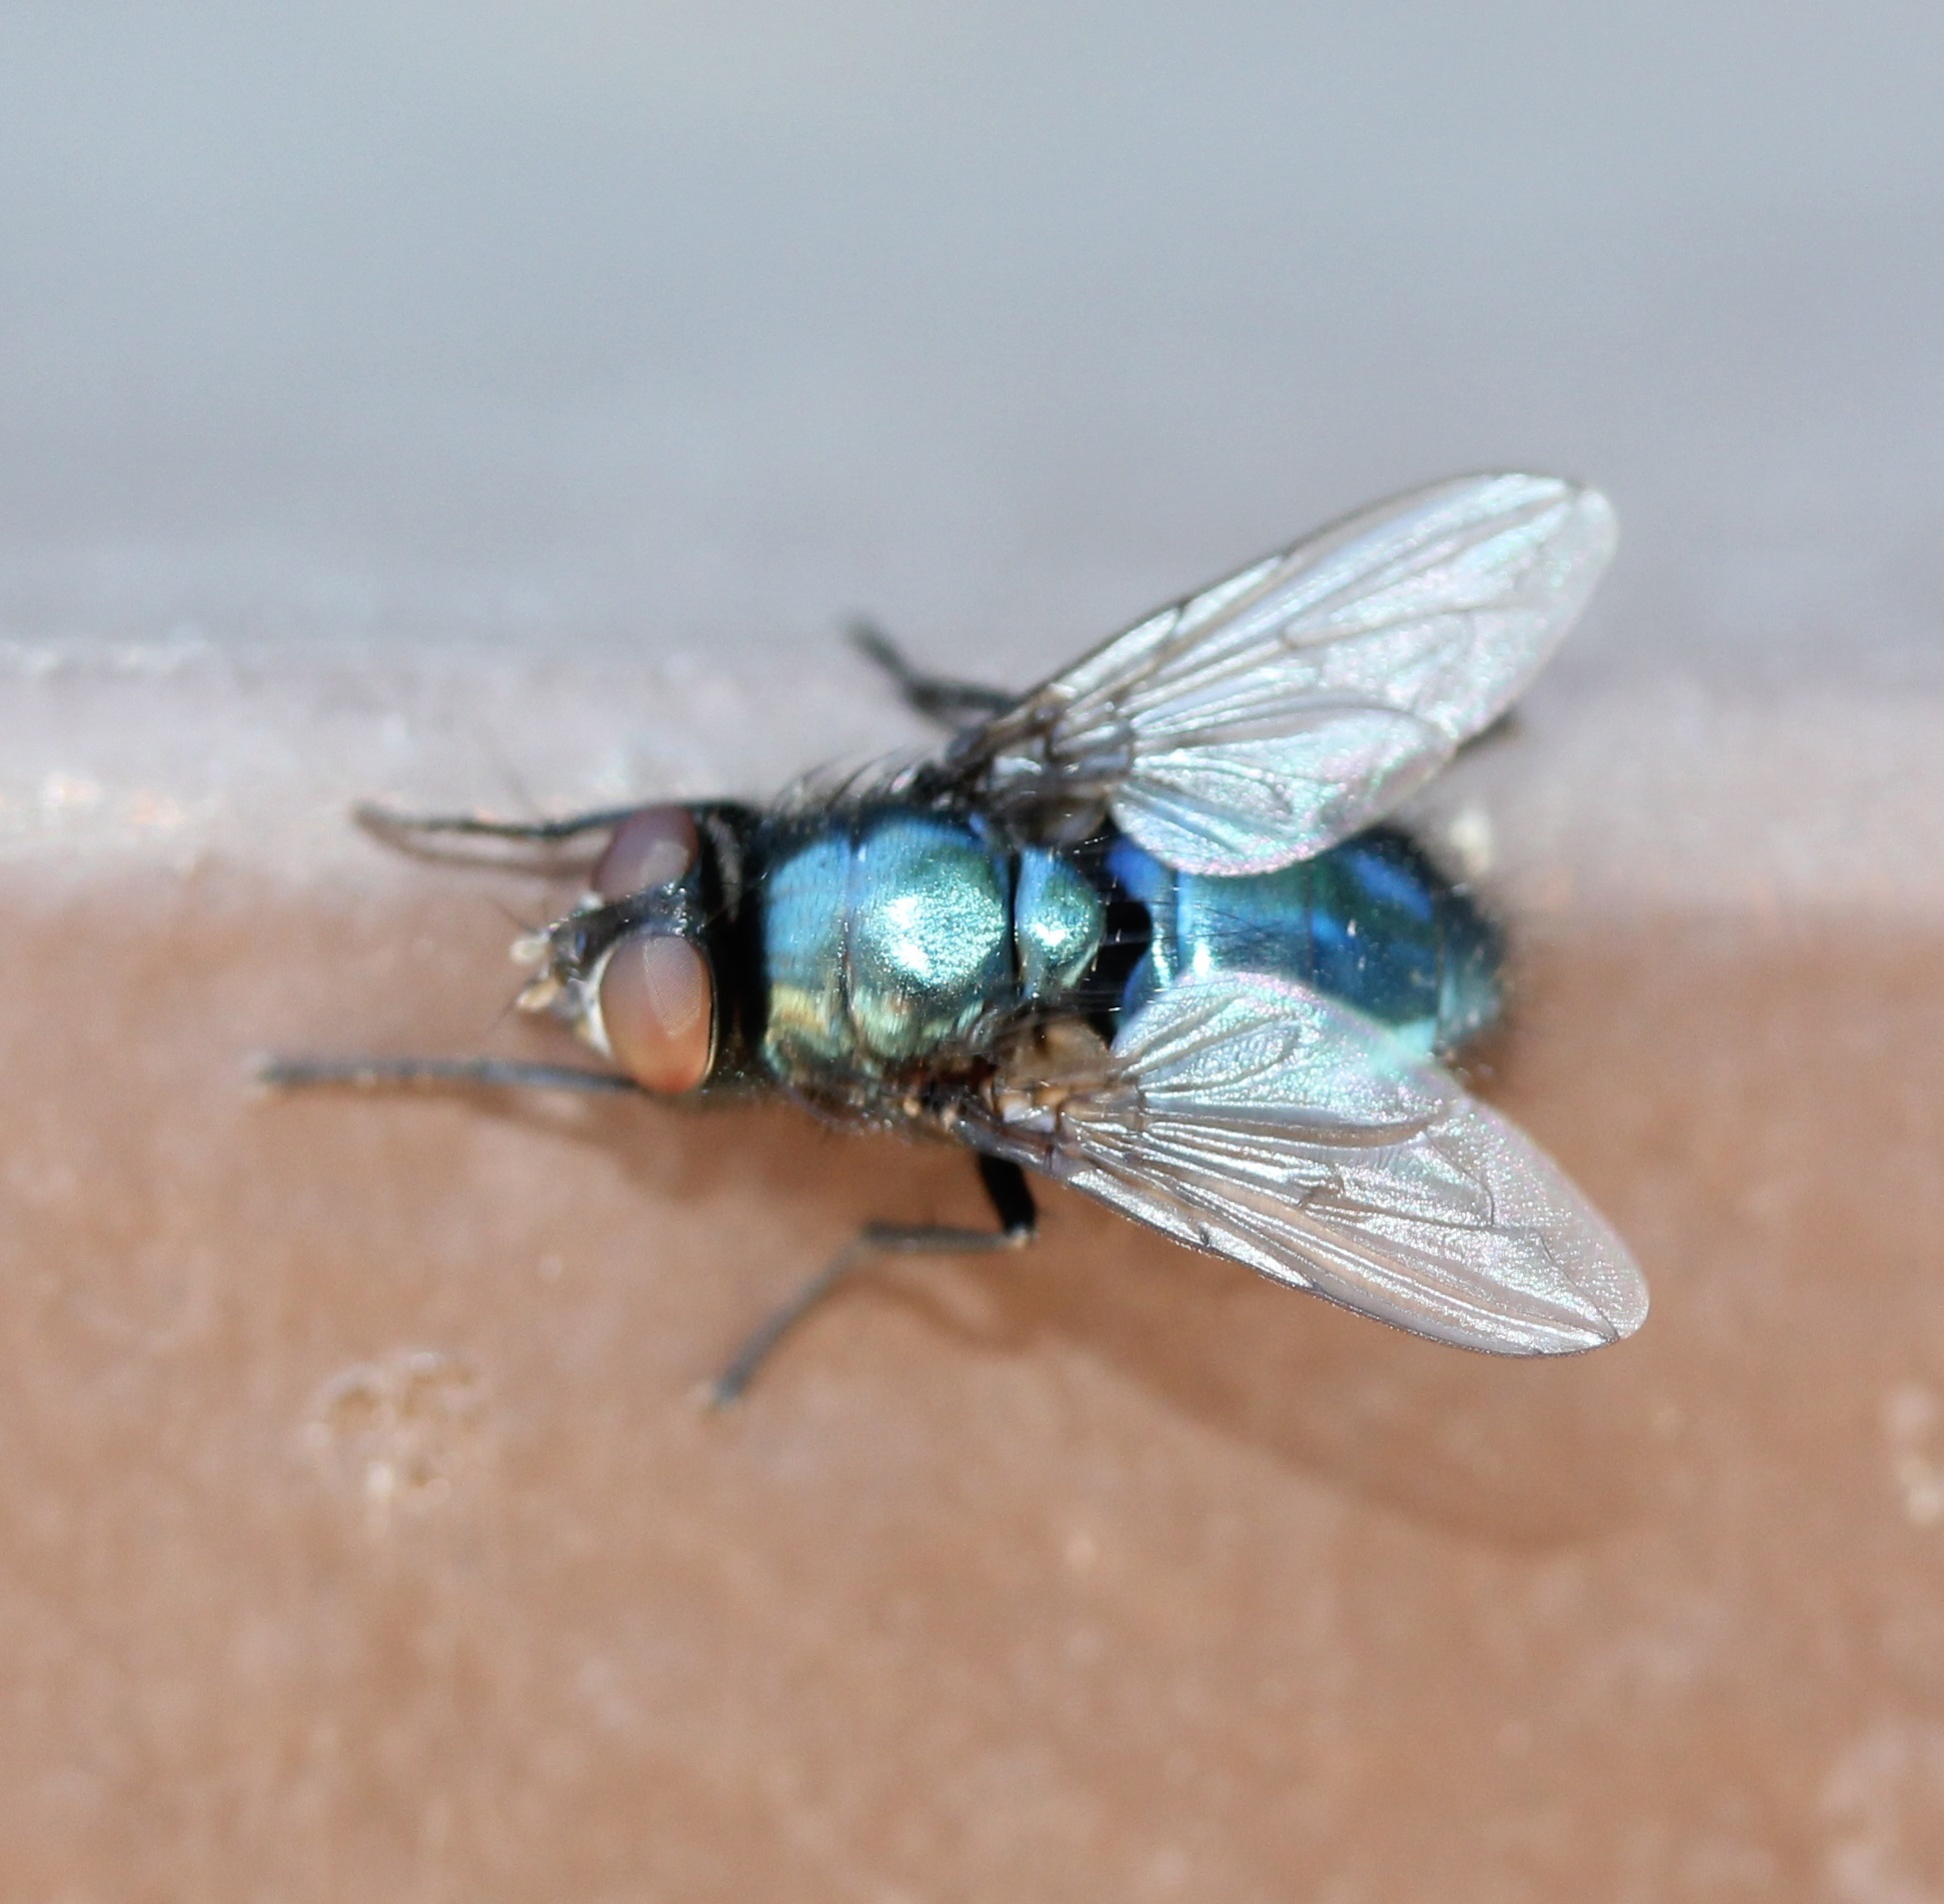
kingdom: Animalia
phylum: Arthropoda
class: Insecta
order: Diptera
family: Calliphoridae
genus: Protophormia
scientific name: Protophormia terraenovae
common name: Blackbottle
